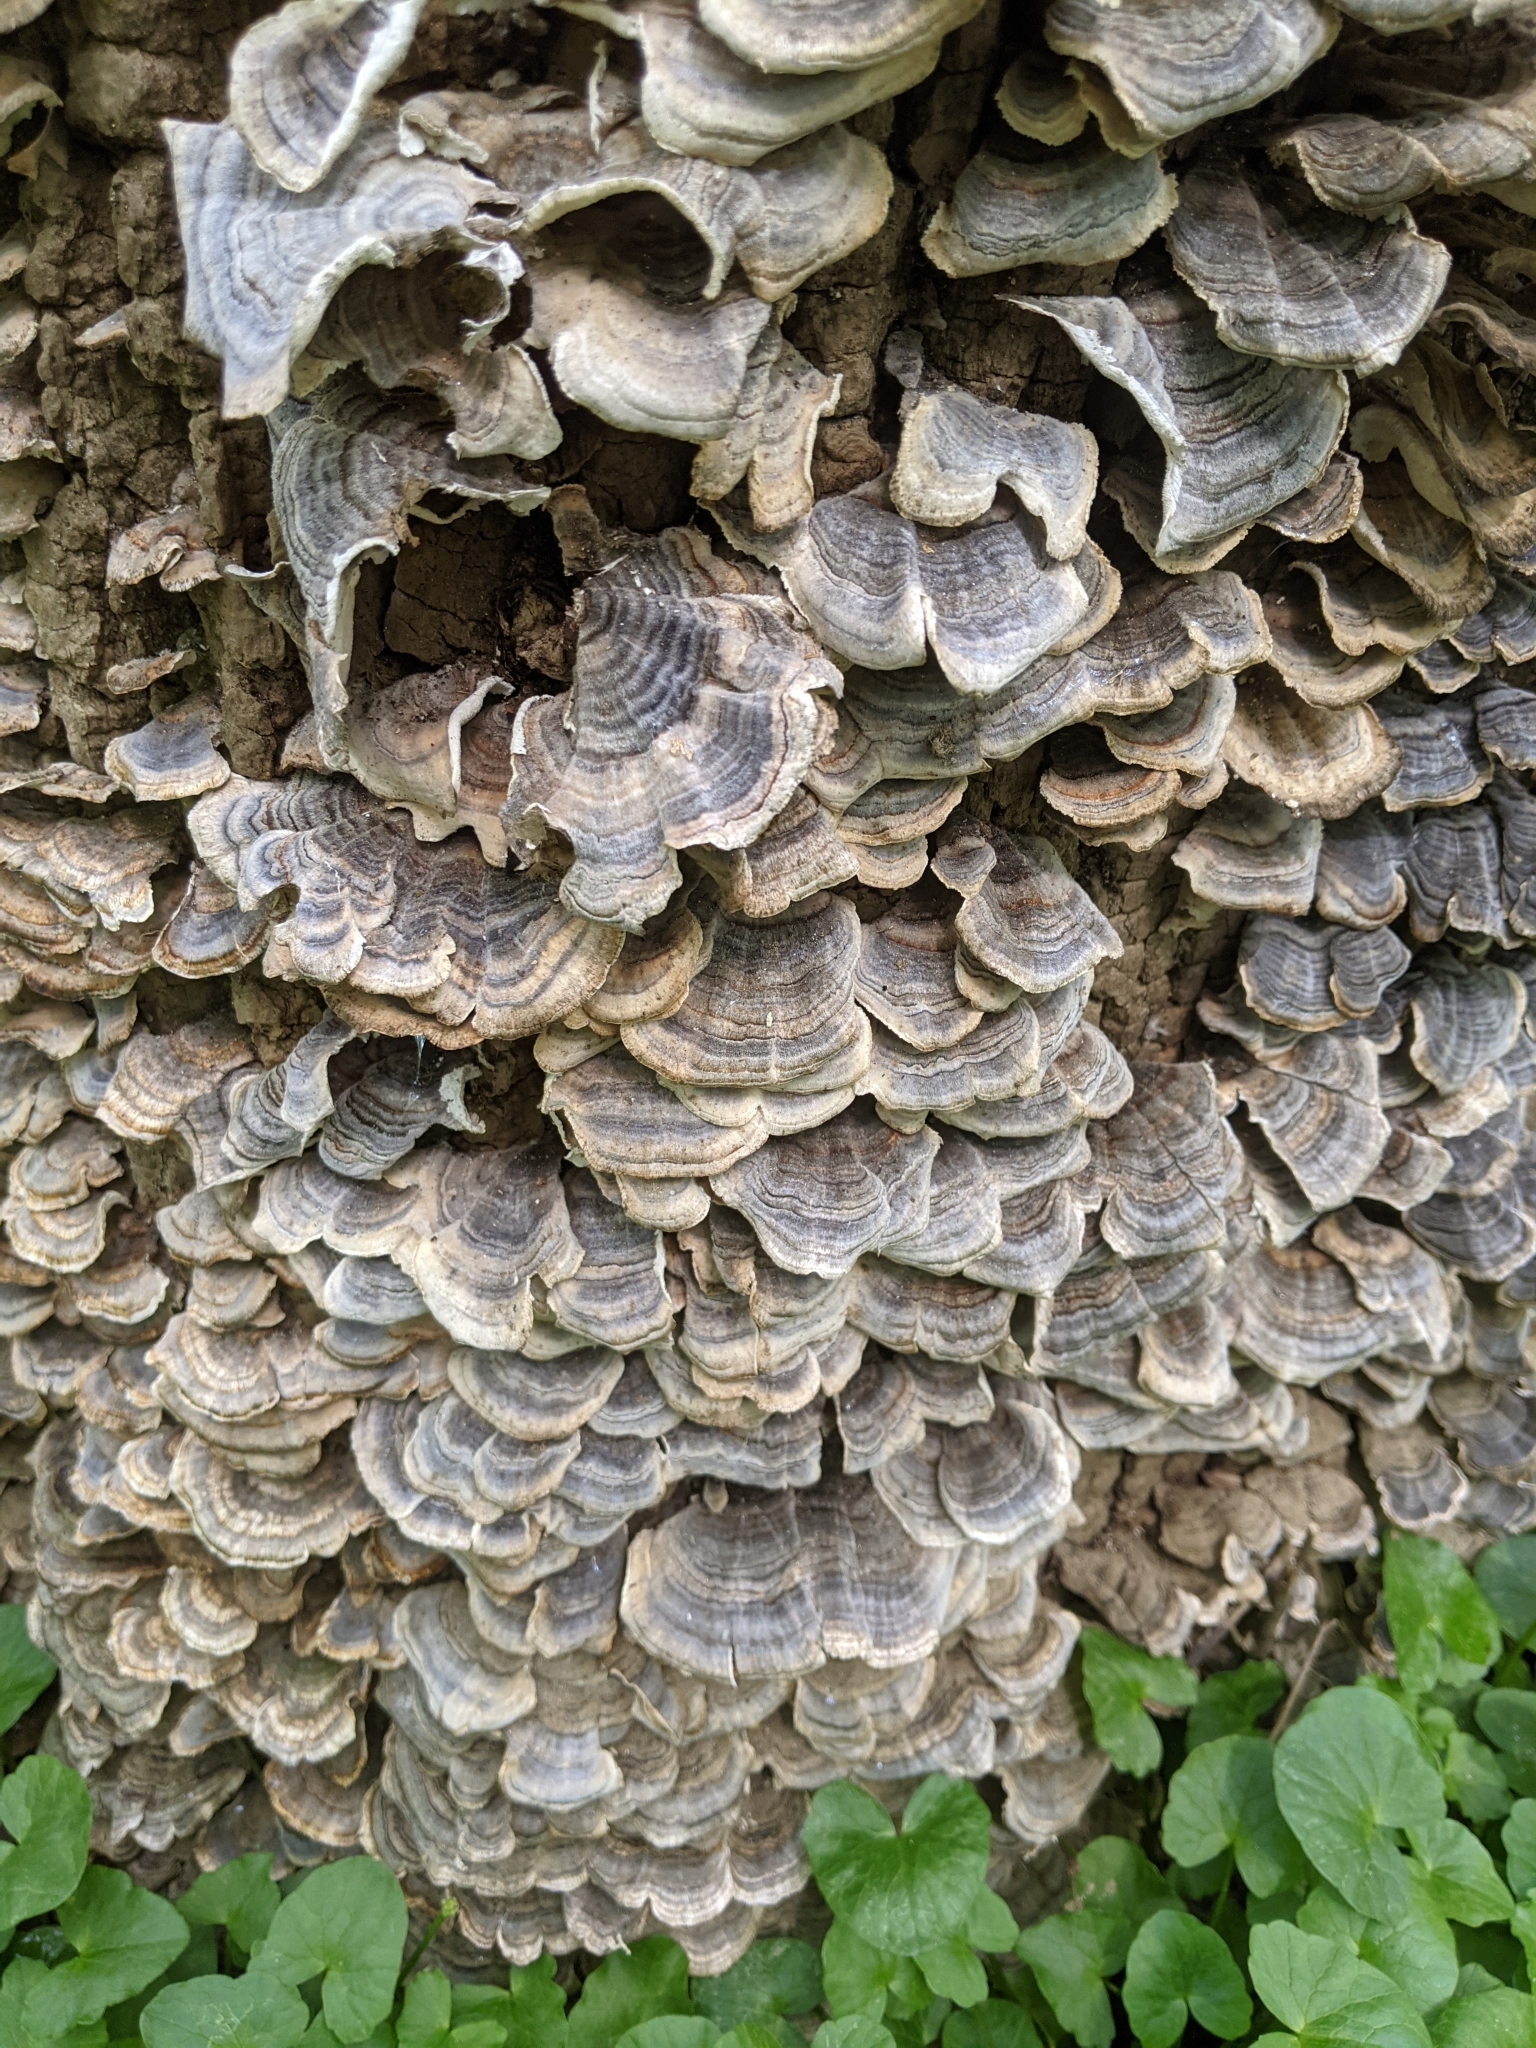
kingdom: Fungi
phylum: Basidiomycota
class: Agaricomycetes
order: Polyporales
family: Polyporaceae
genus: Trametes
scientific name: Trametes versicolor
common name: Turkeytail
